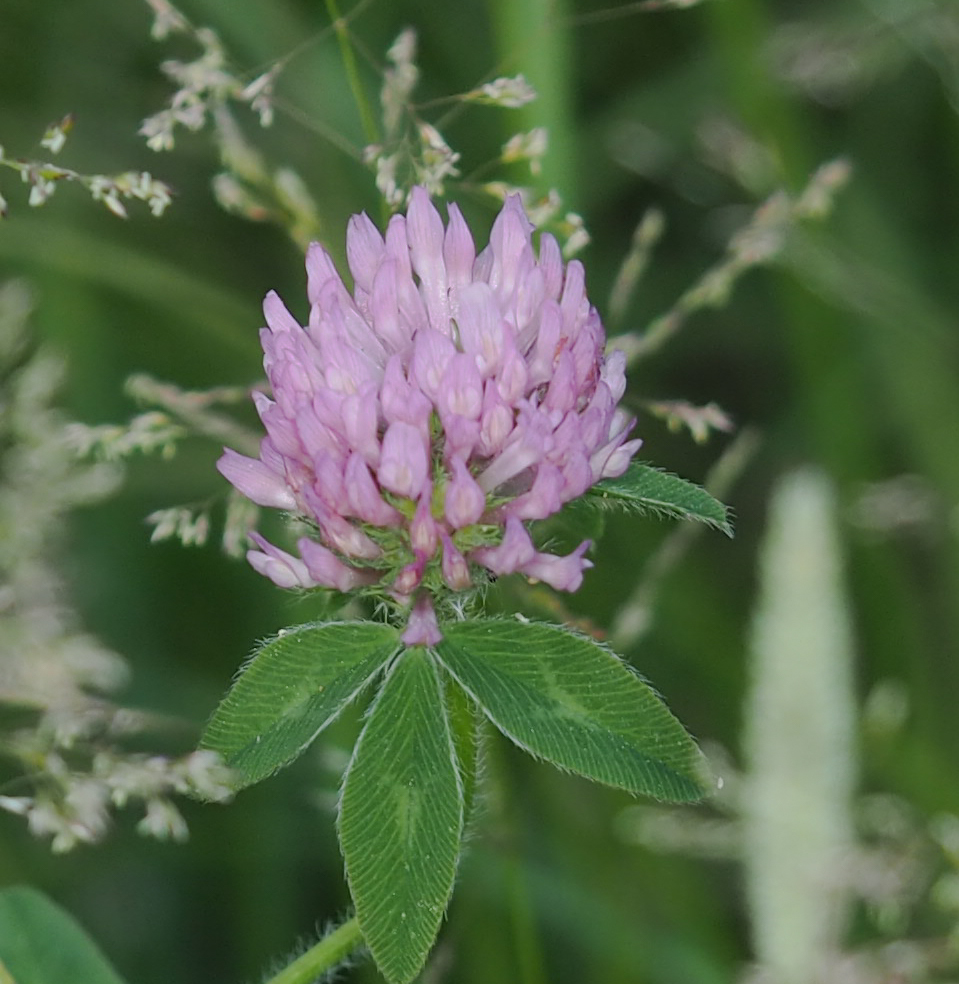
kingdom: Plantae
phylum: Tracheophyta
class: Magnoliopsida
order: Fabales
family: Fabaceae
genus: Trifolium
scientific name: Trifolium pratense
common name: Red clover
